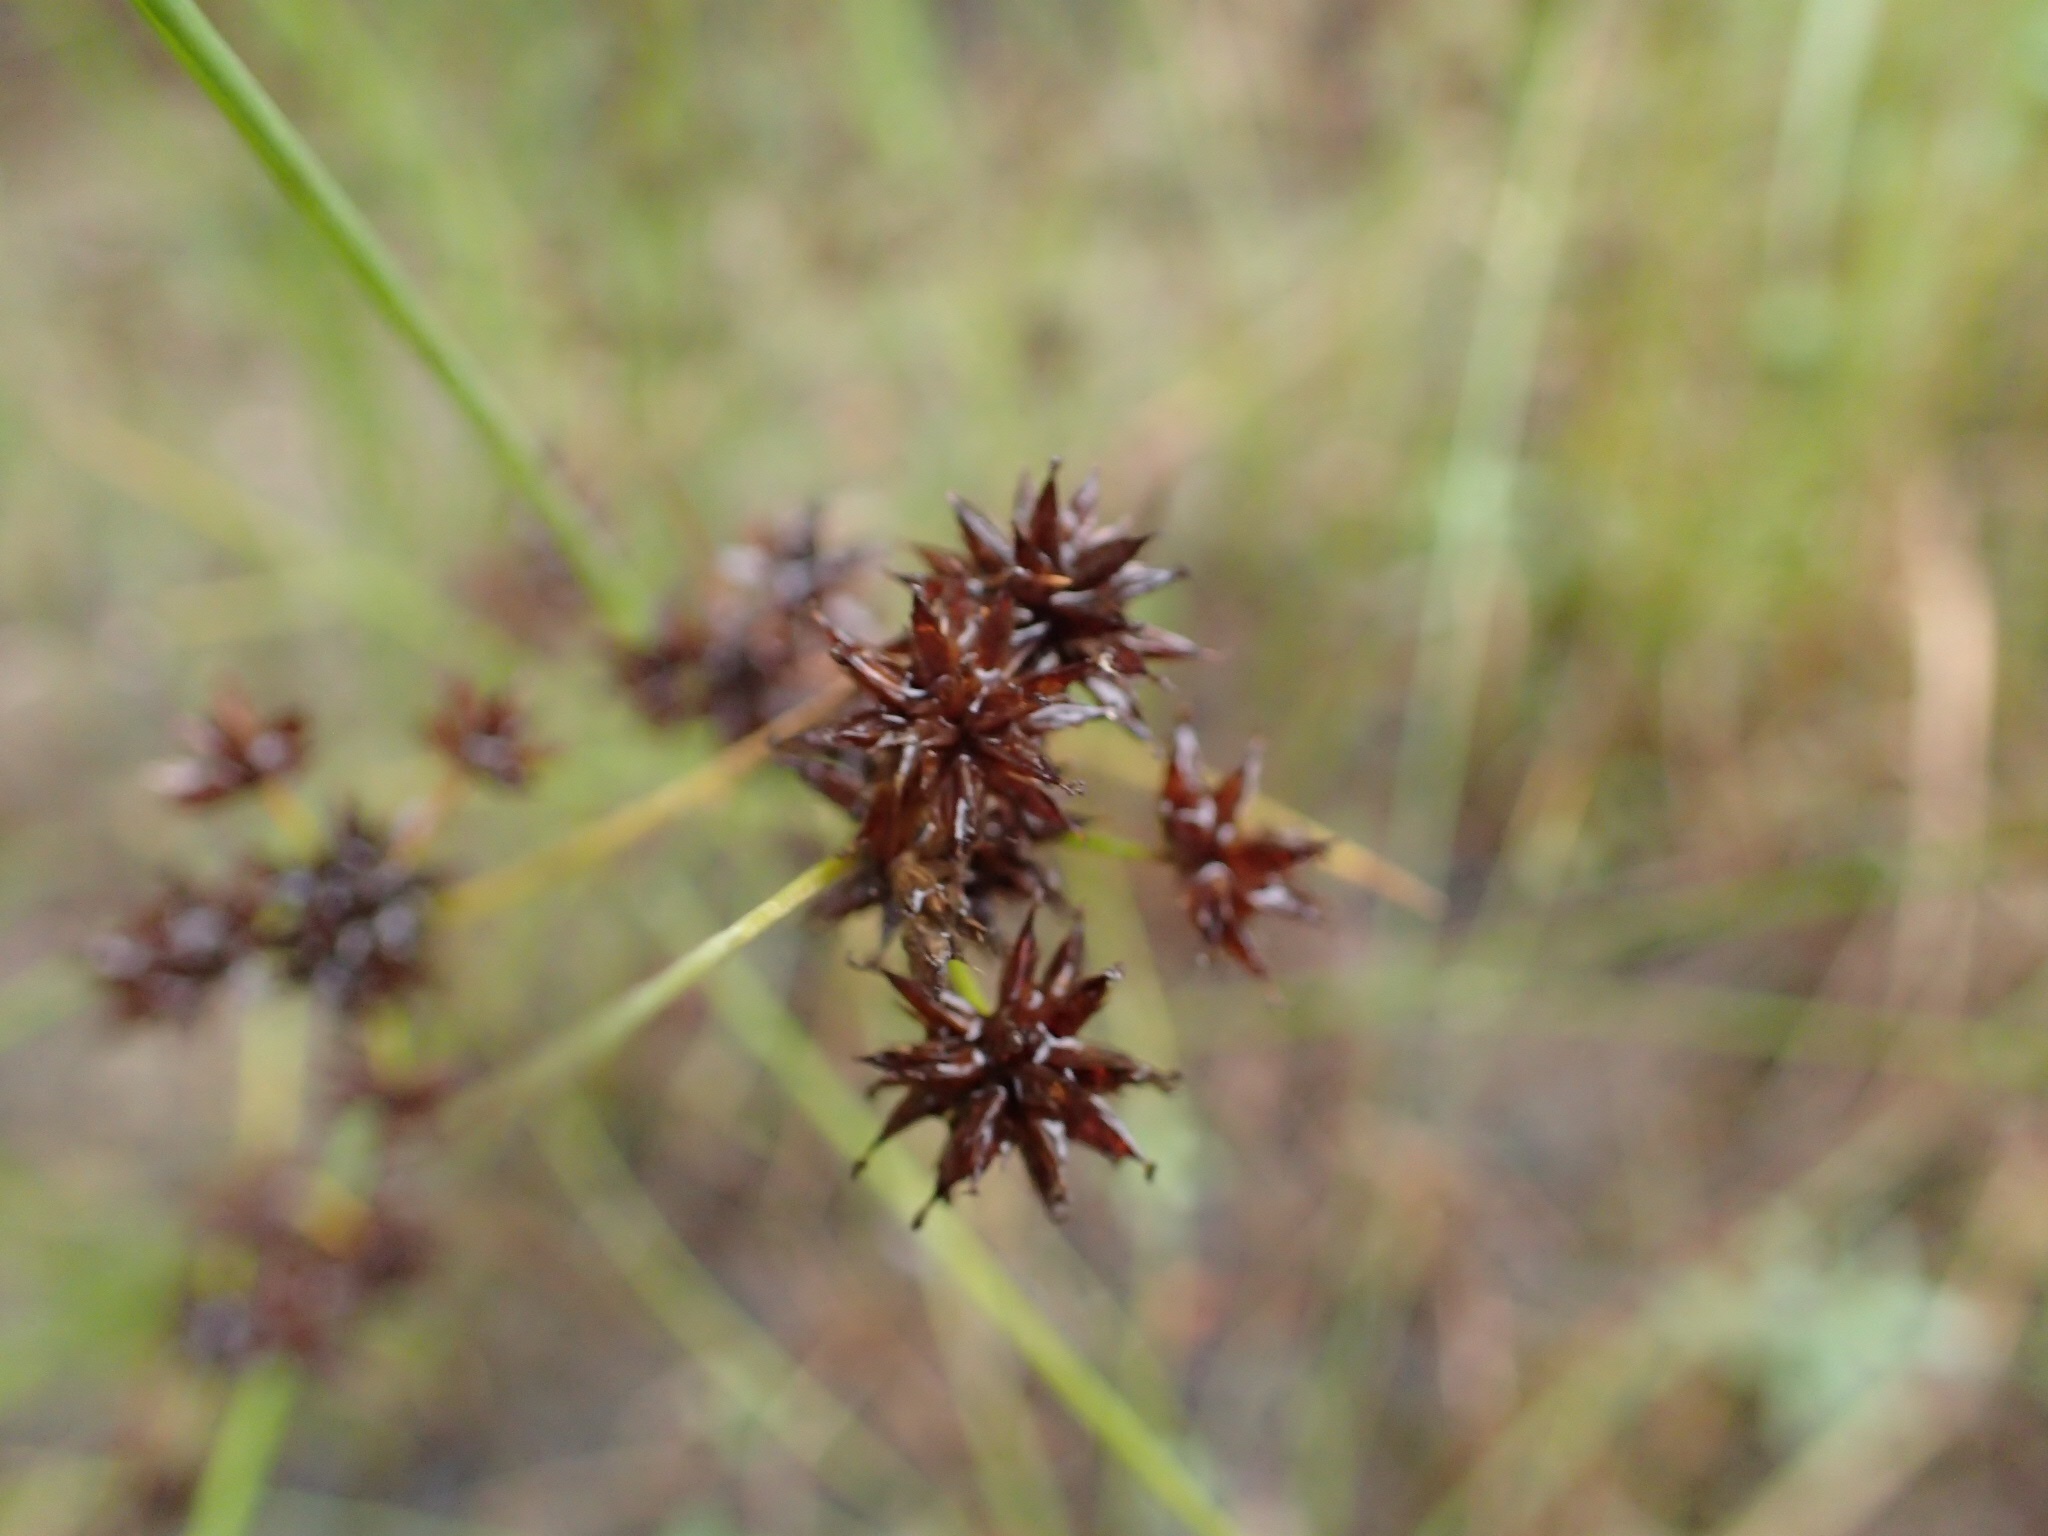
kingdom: Plantae
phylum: Tracheophyta
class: Liliopsida
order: Poales
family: Juncaceae
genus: Juncus
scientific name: Juncus nodosus
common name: Knotted rush
